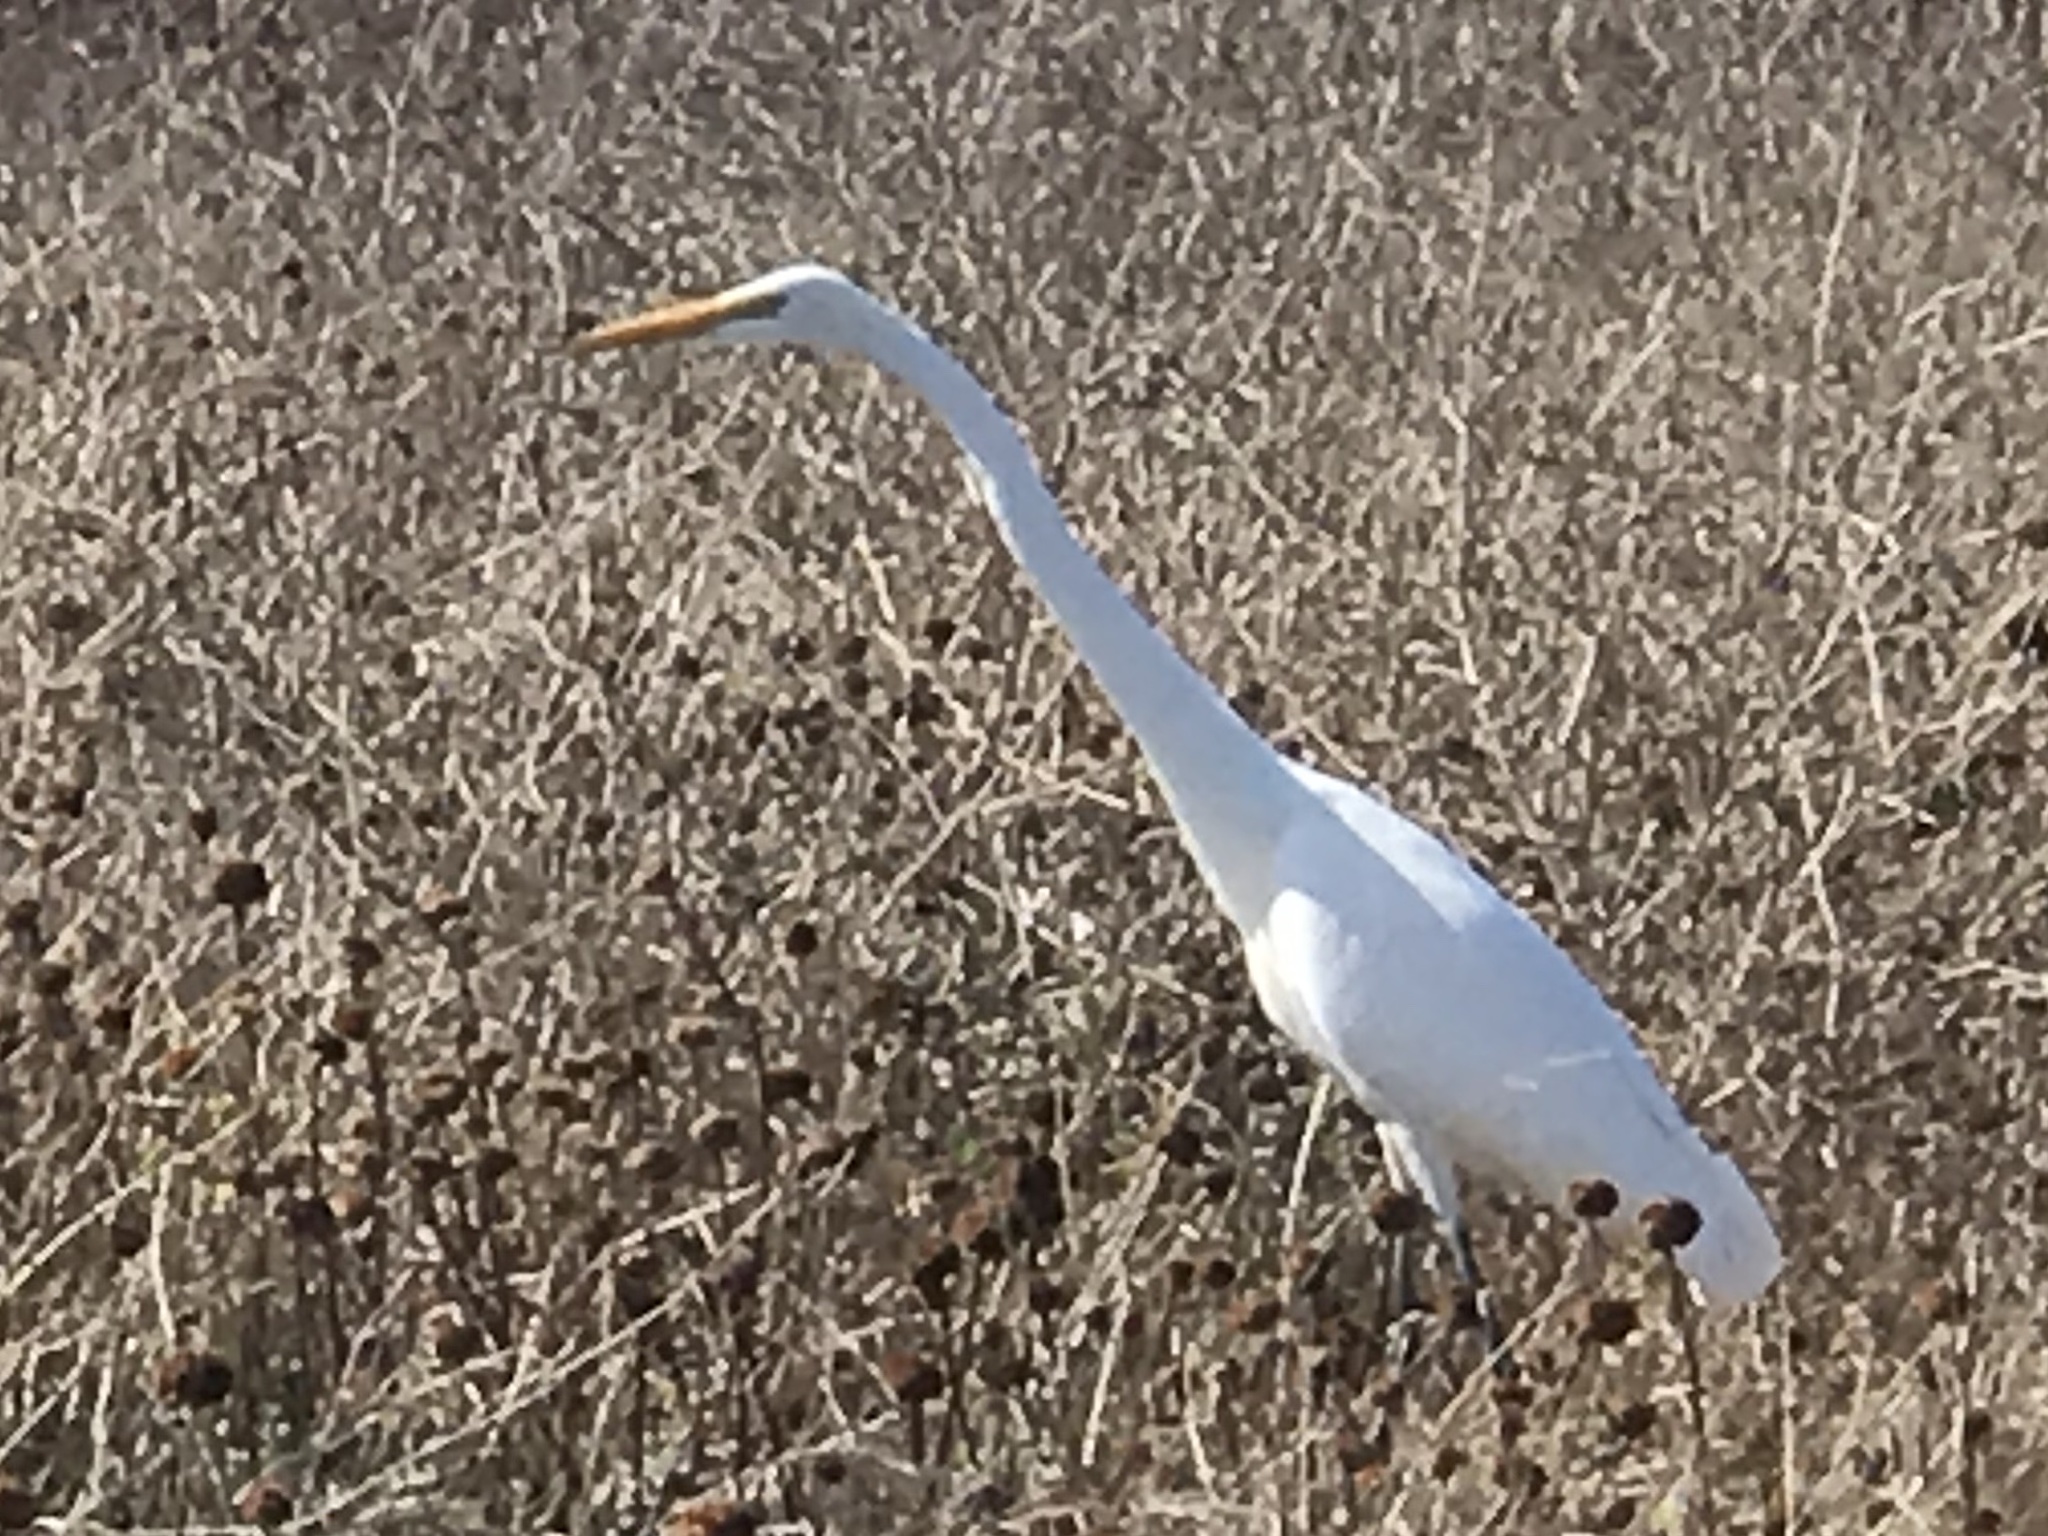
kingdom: Animalia
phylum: Chordata
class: Aves
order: Pelecaniformes
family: Ardeidae
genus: Ardea
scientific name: Ardea alba
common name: Great egret
